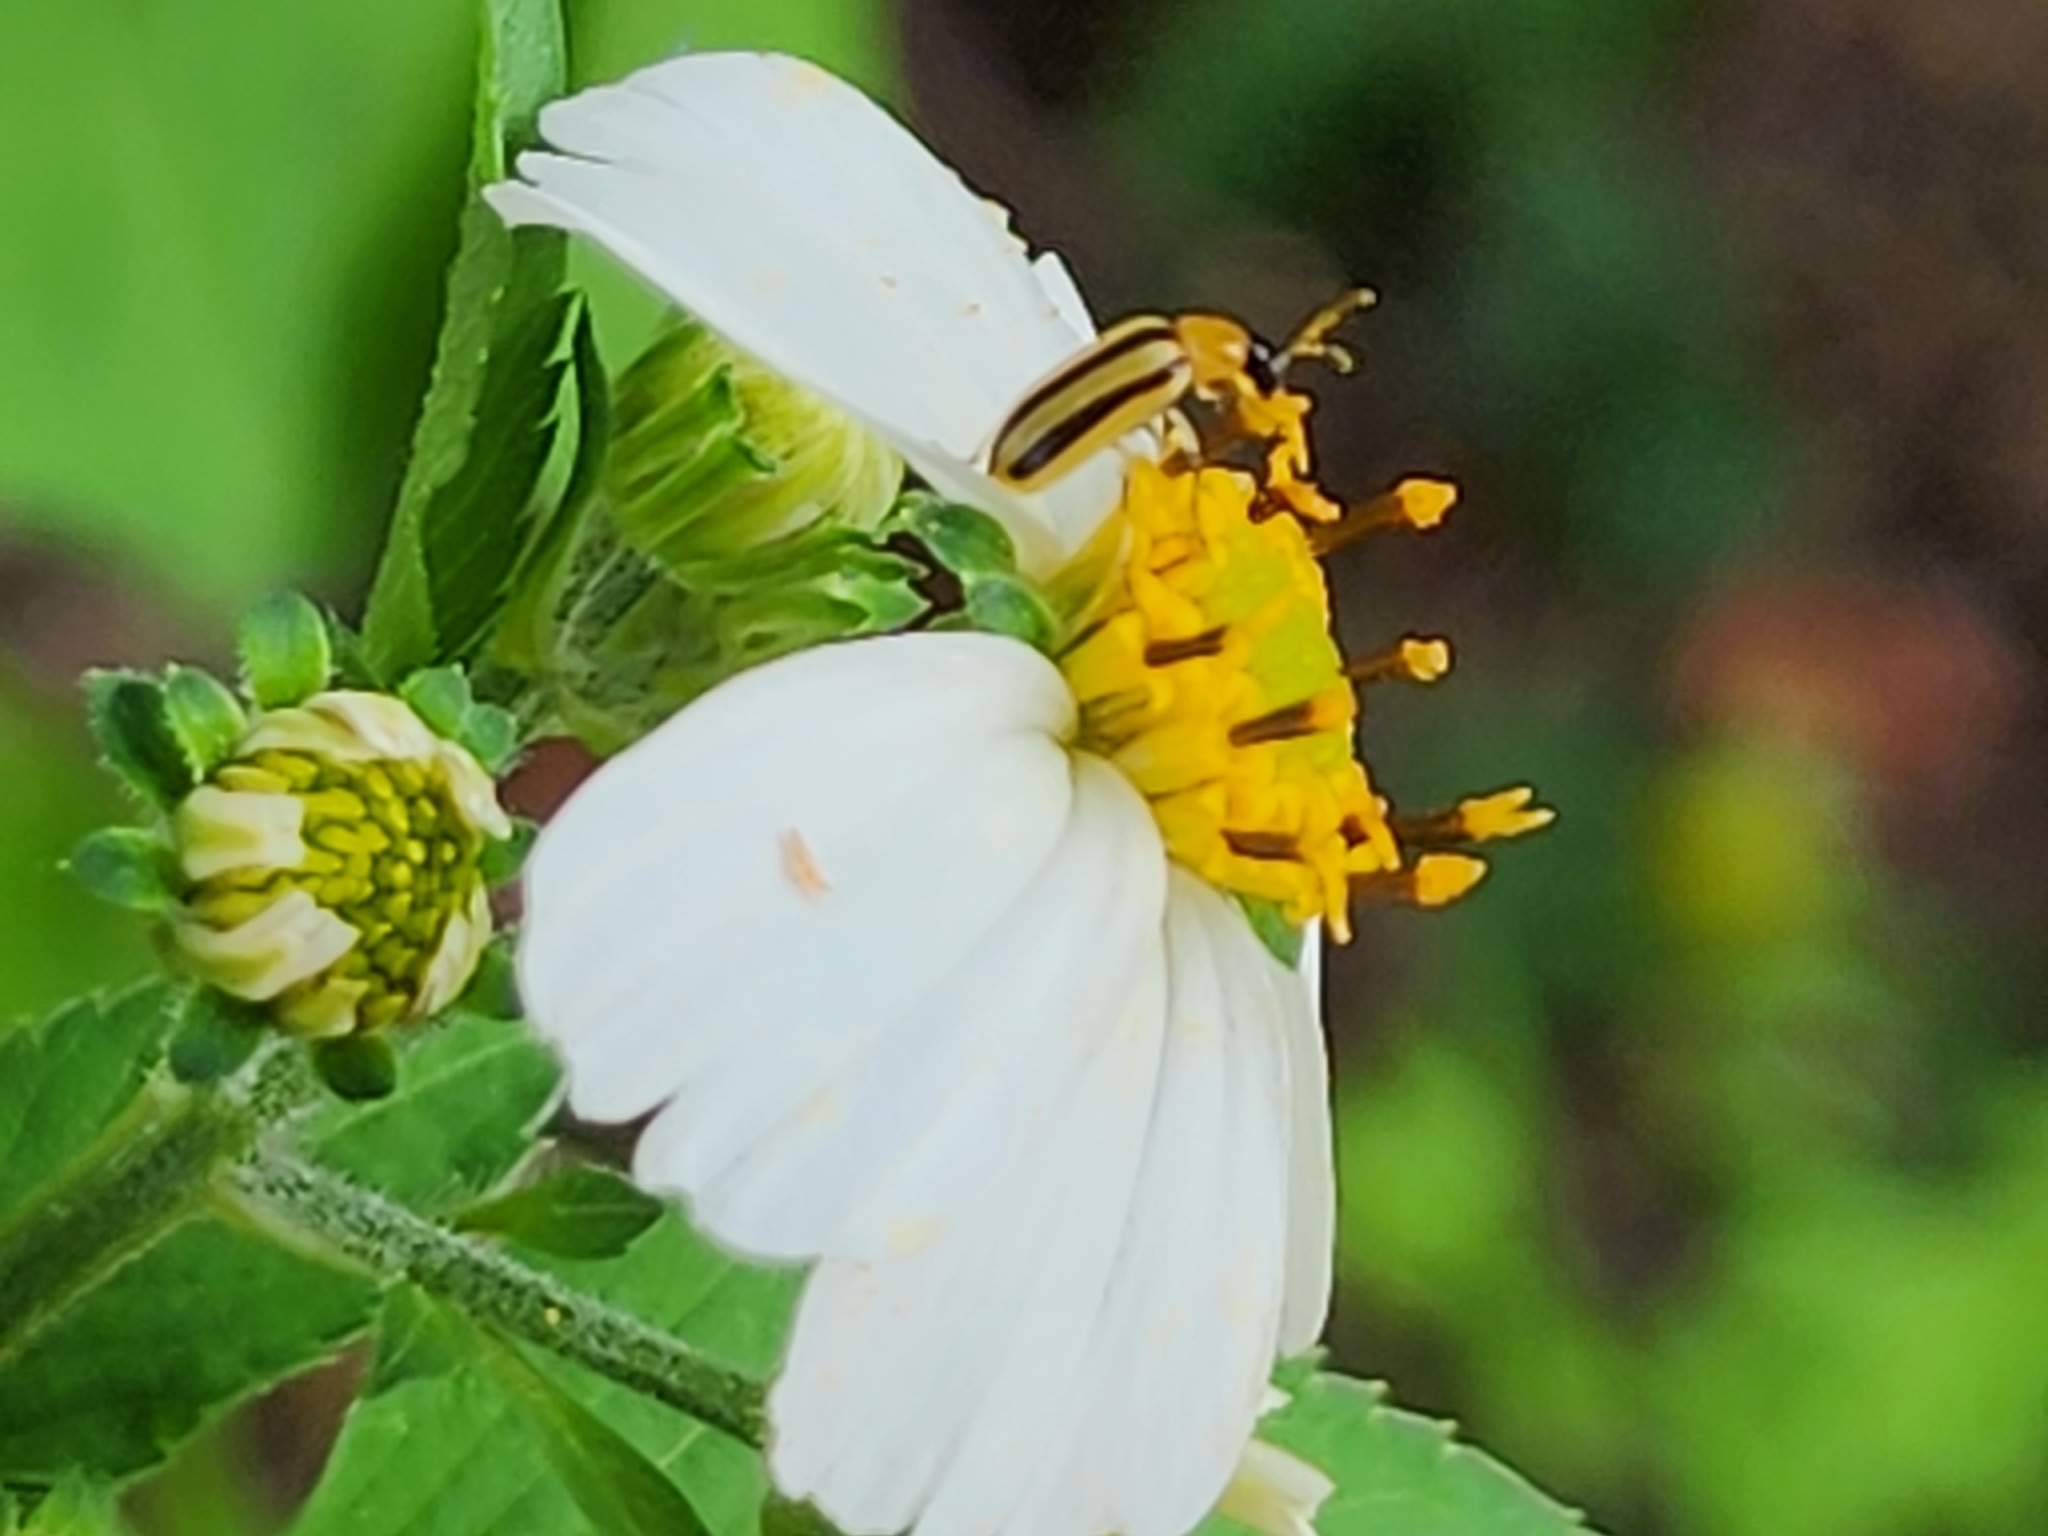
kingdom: Animalia
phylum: Arthropoda
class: Insecta
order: Coleoptera
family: Chrysomelidae
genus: Acalymma
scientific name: Acalymma vittatum
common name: Striped cucumber beetle
